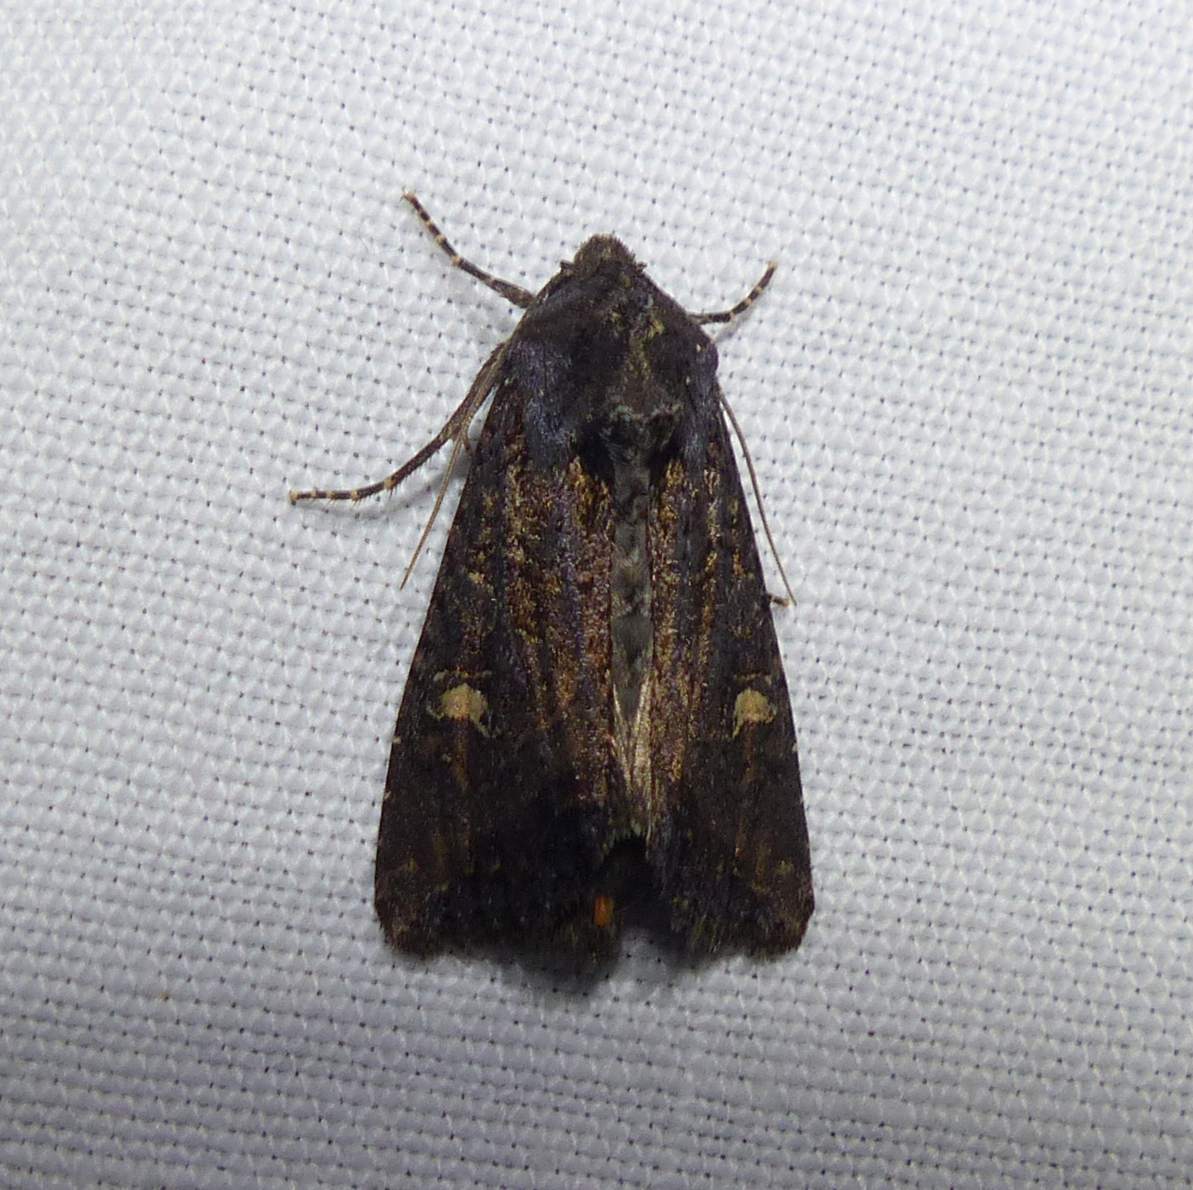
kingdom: Animalia
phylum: Arthropoda
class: Insecta
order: Lepidoptera
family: Noctuidae
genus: Helotropha
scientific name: Helotropha reniformis
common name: Kidney-spotted rustic moth
